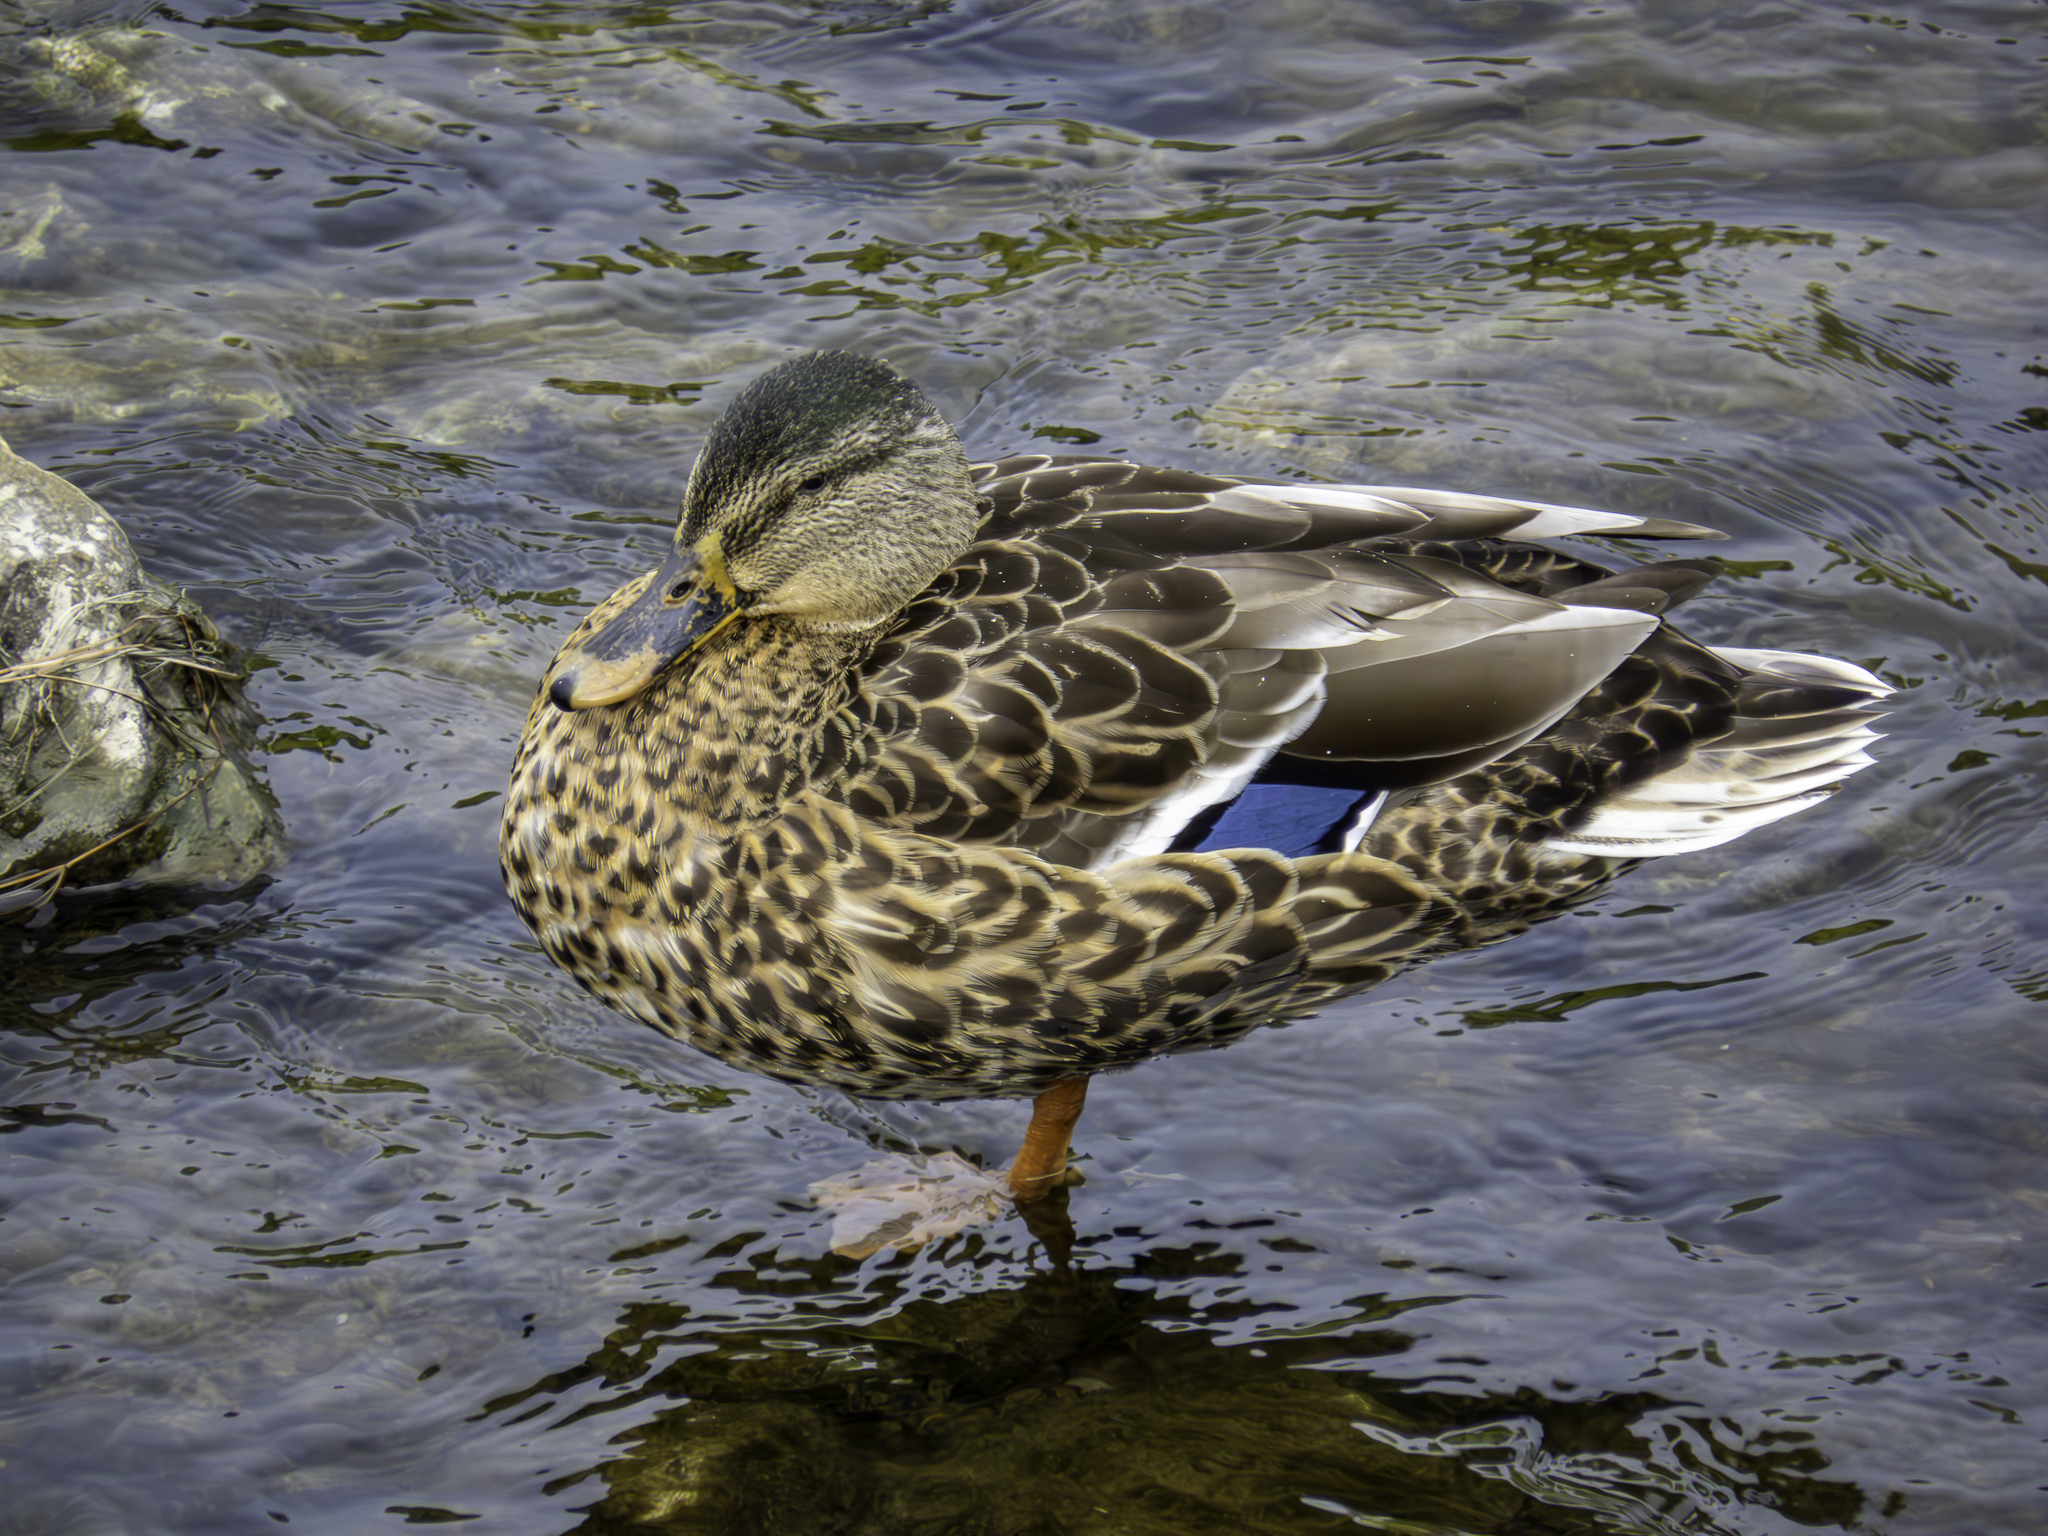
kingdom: Animalia
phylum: Chordata
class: Aves
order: Anseriformes
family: Anatidae
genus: Anas
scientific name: Anas platyrhynchos
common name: Mallard
